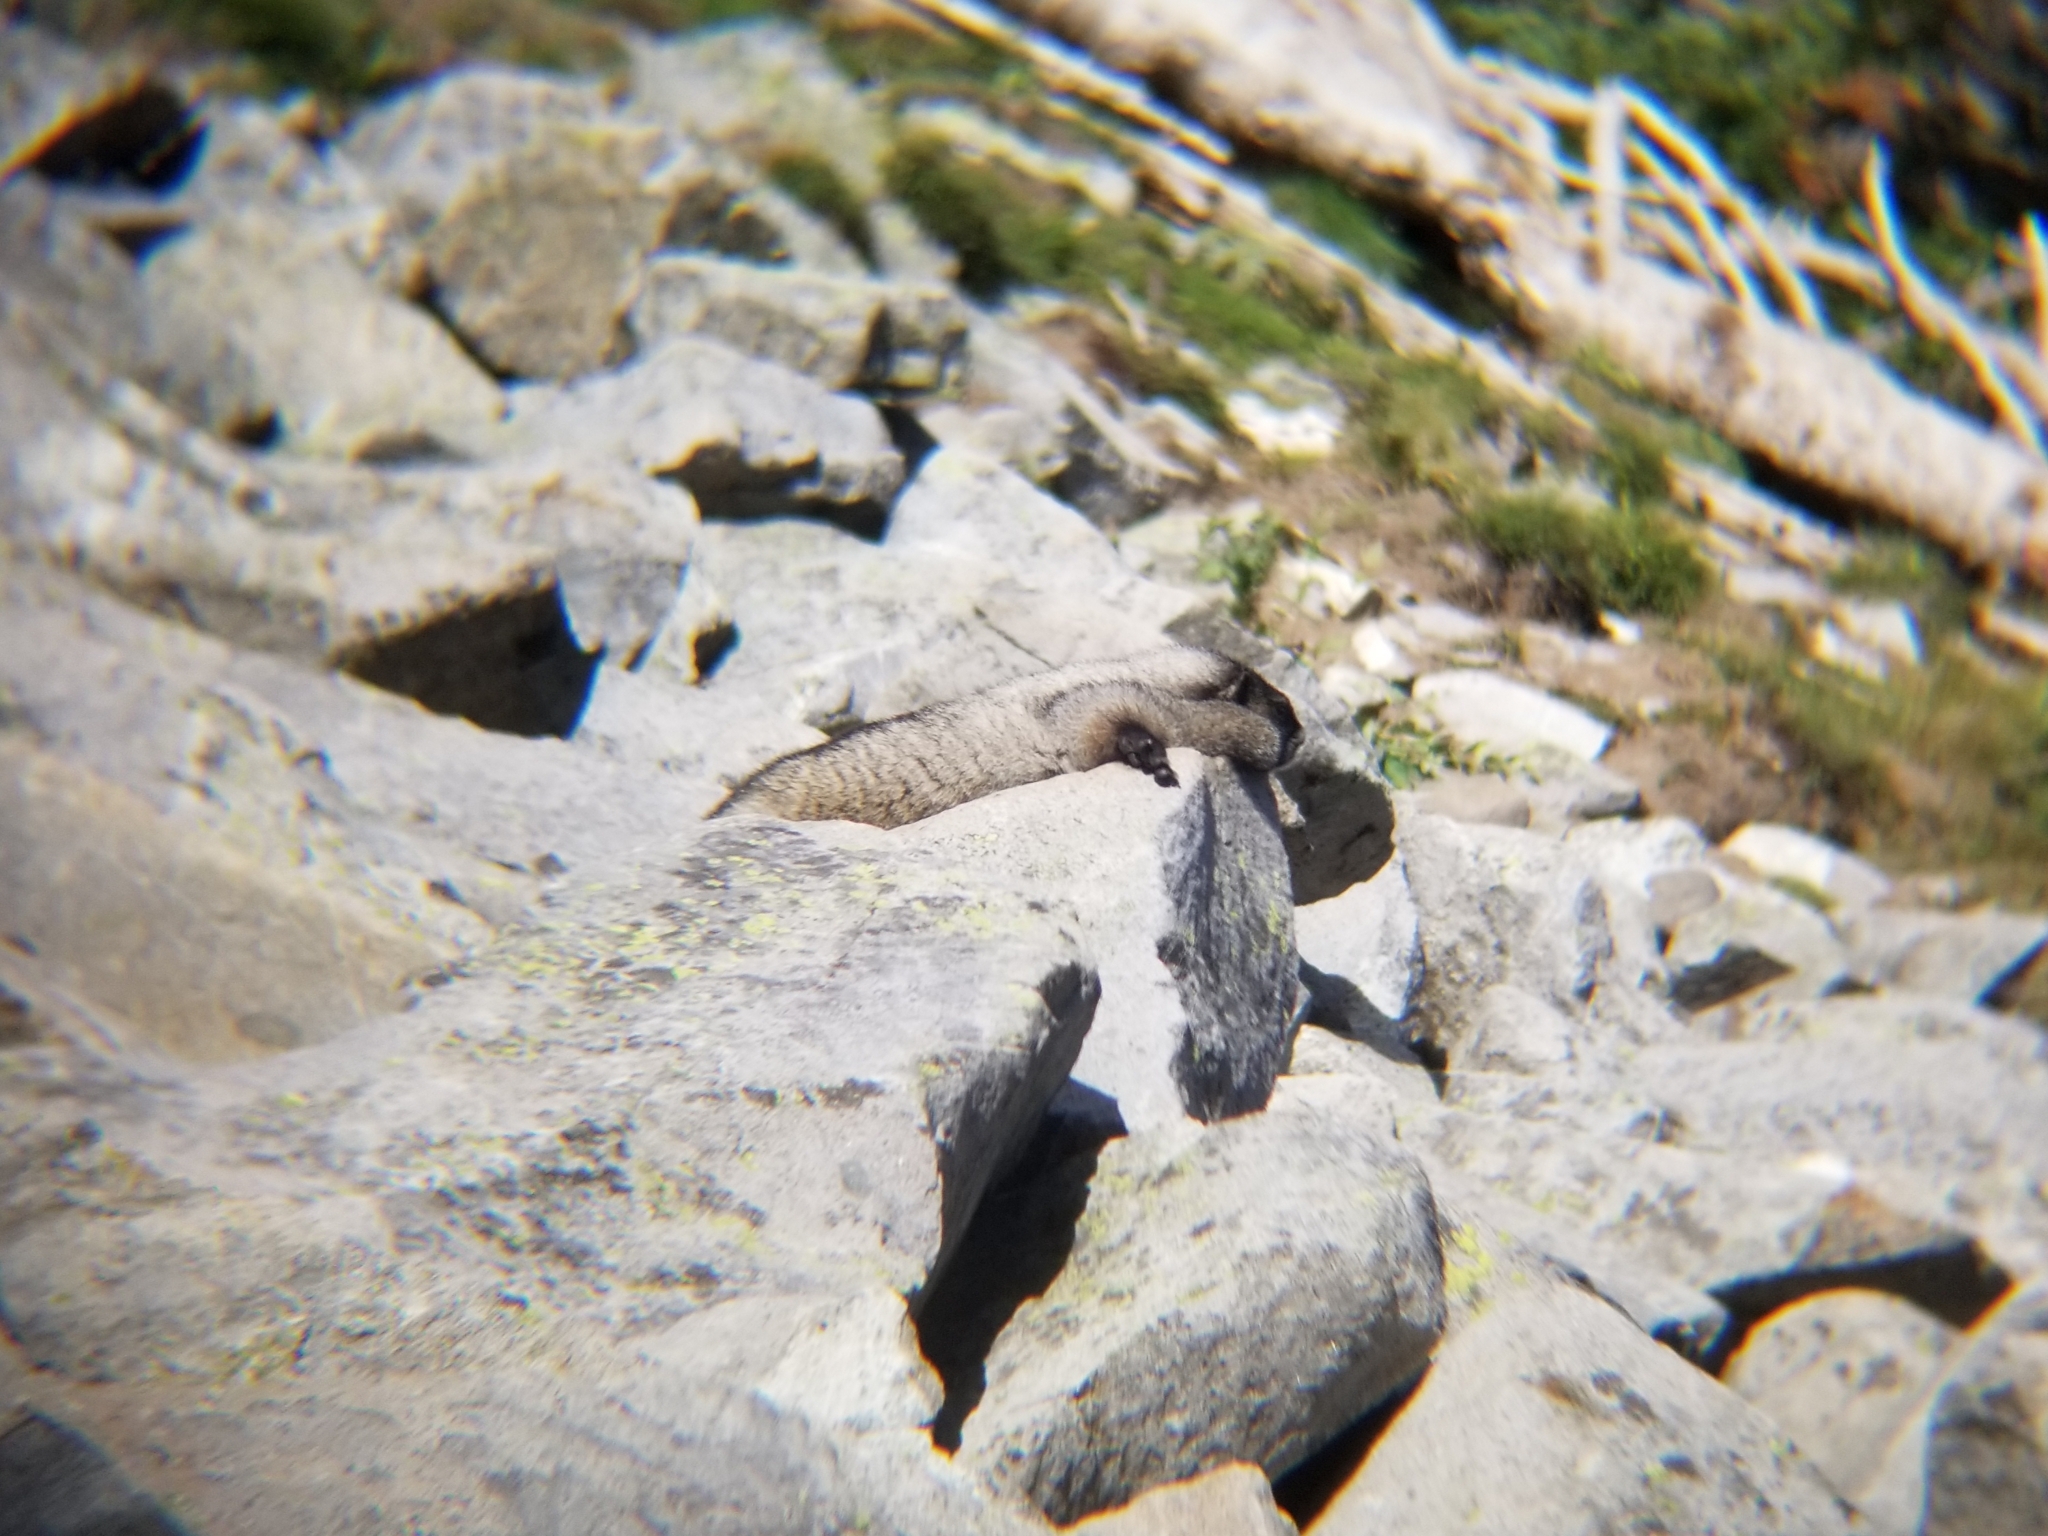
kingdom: Animalia
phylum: Chordata
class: Mammalia
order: Rodentia
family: Sciuridae
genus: Marmota
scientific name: Marmota caligata
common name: Hoary marmot
